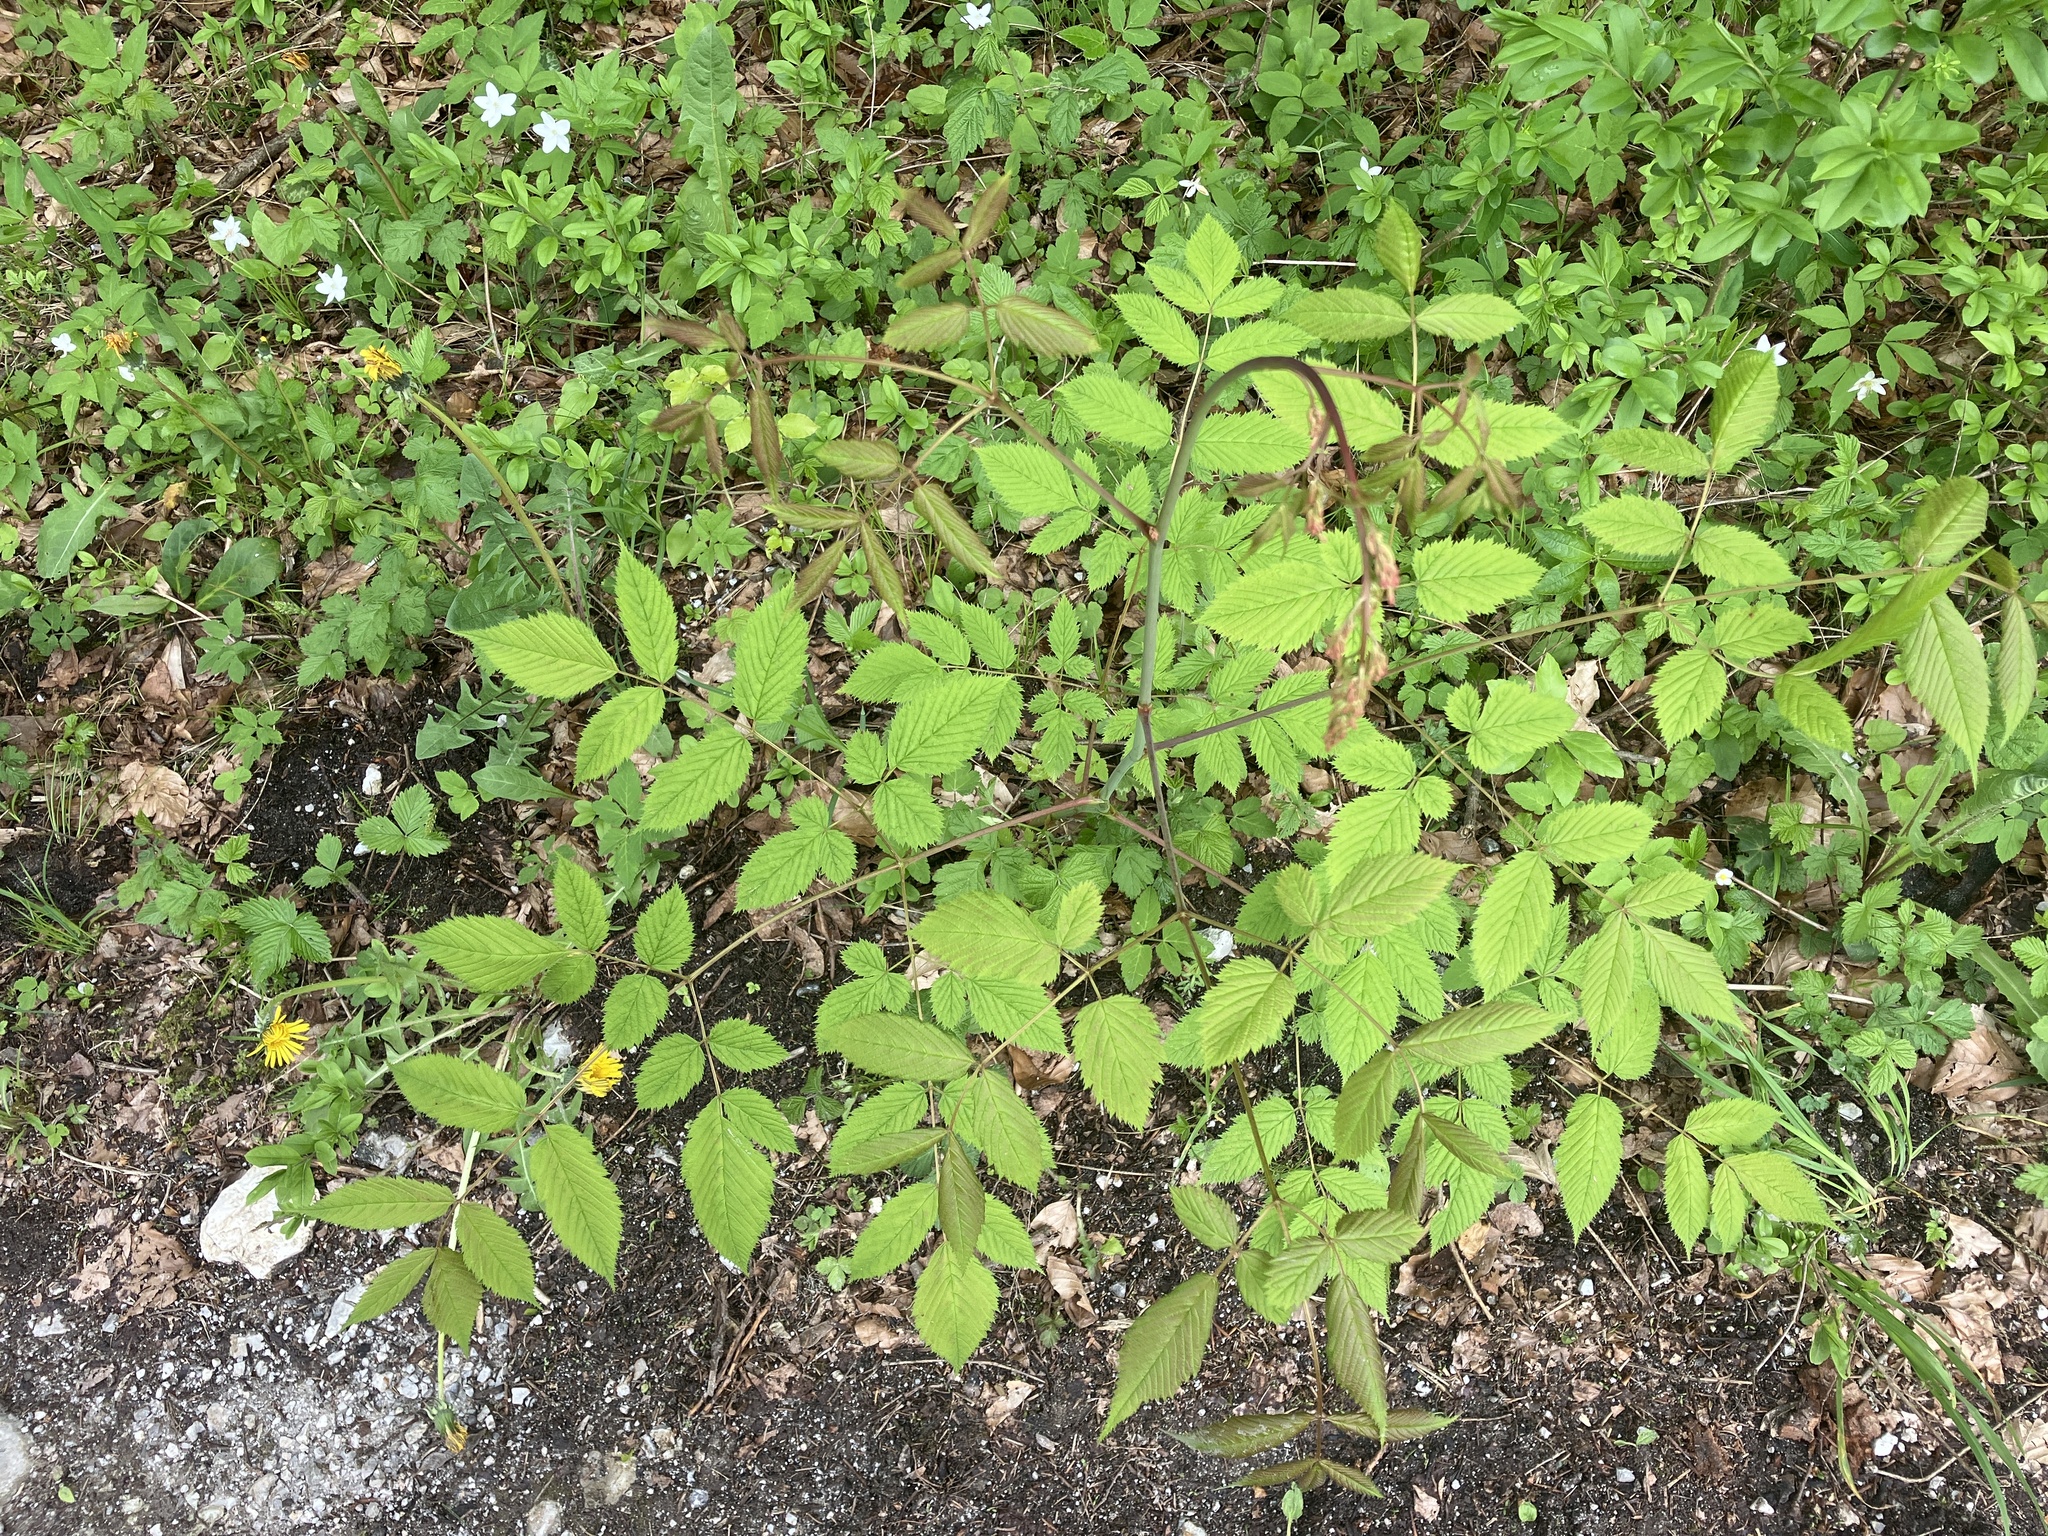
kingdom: Plantae
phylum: Tracheophyta
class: Magnoliopsida
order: Rosales
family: Rosaceae
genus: Aruncus
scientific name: Aruncus dioicus
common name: Buck's-beard
